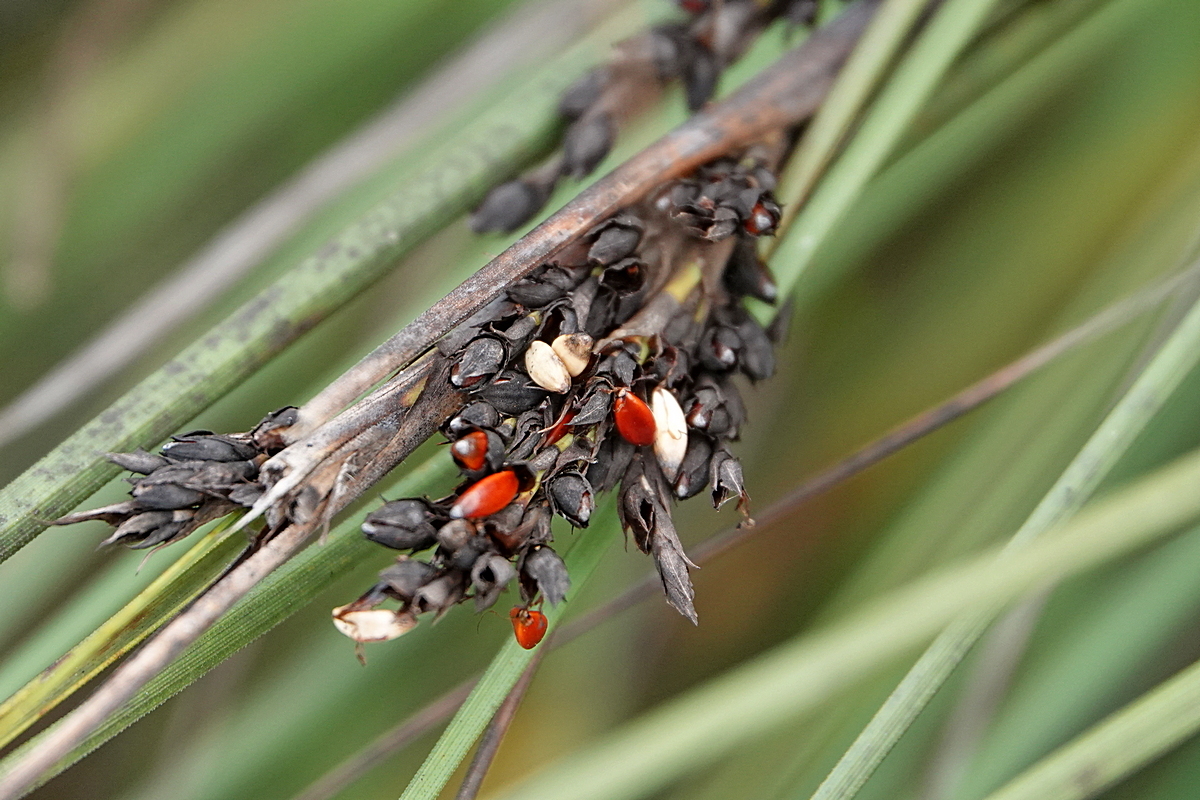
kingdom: Plantae
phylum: Tracheophyta
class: Liliopsida
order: Poales
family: Cyperaceae
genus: Gahnia
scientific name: Gahnia subaequiglumis
